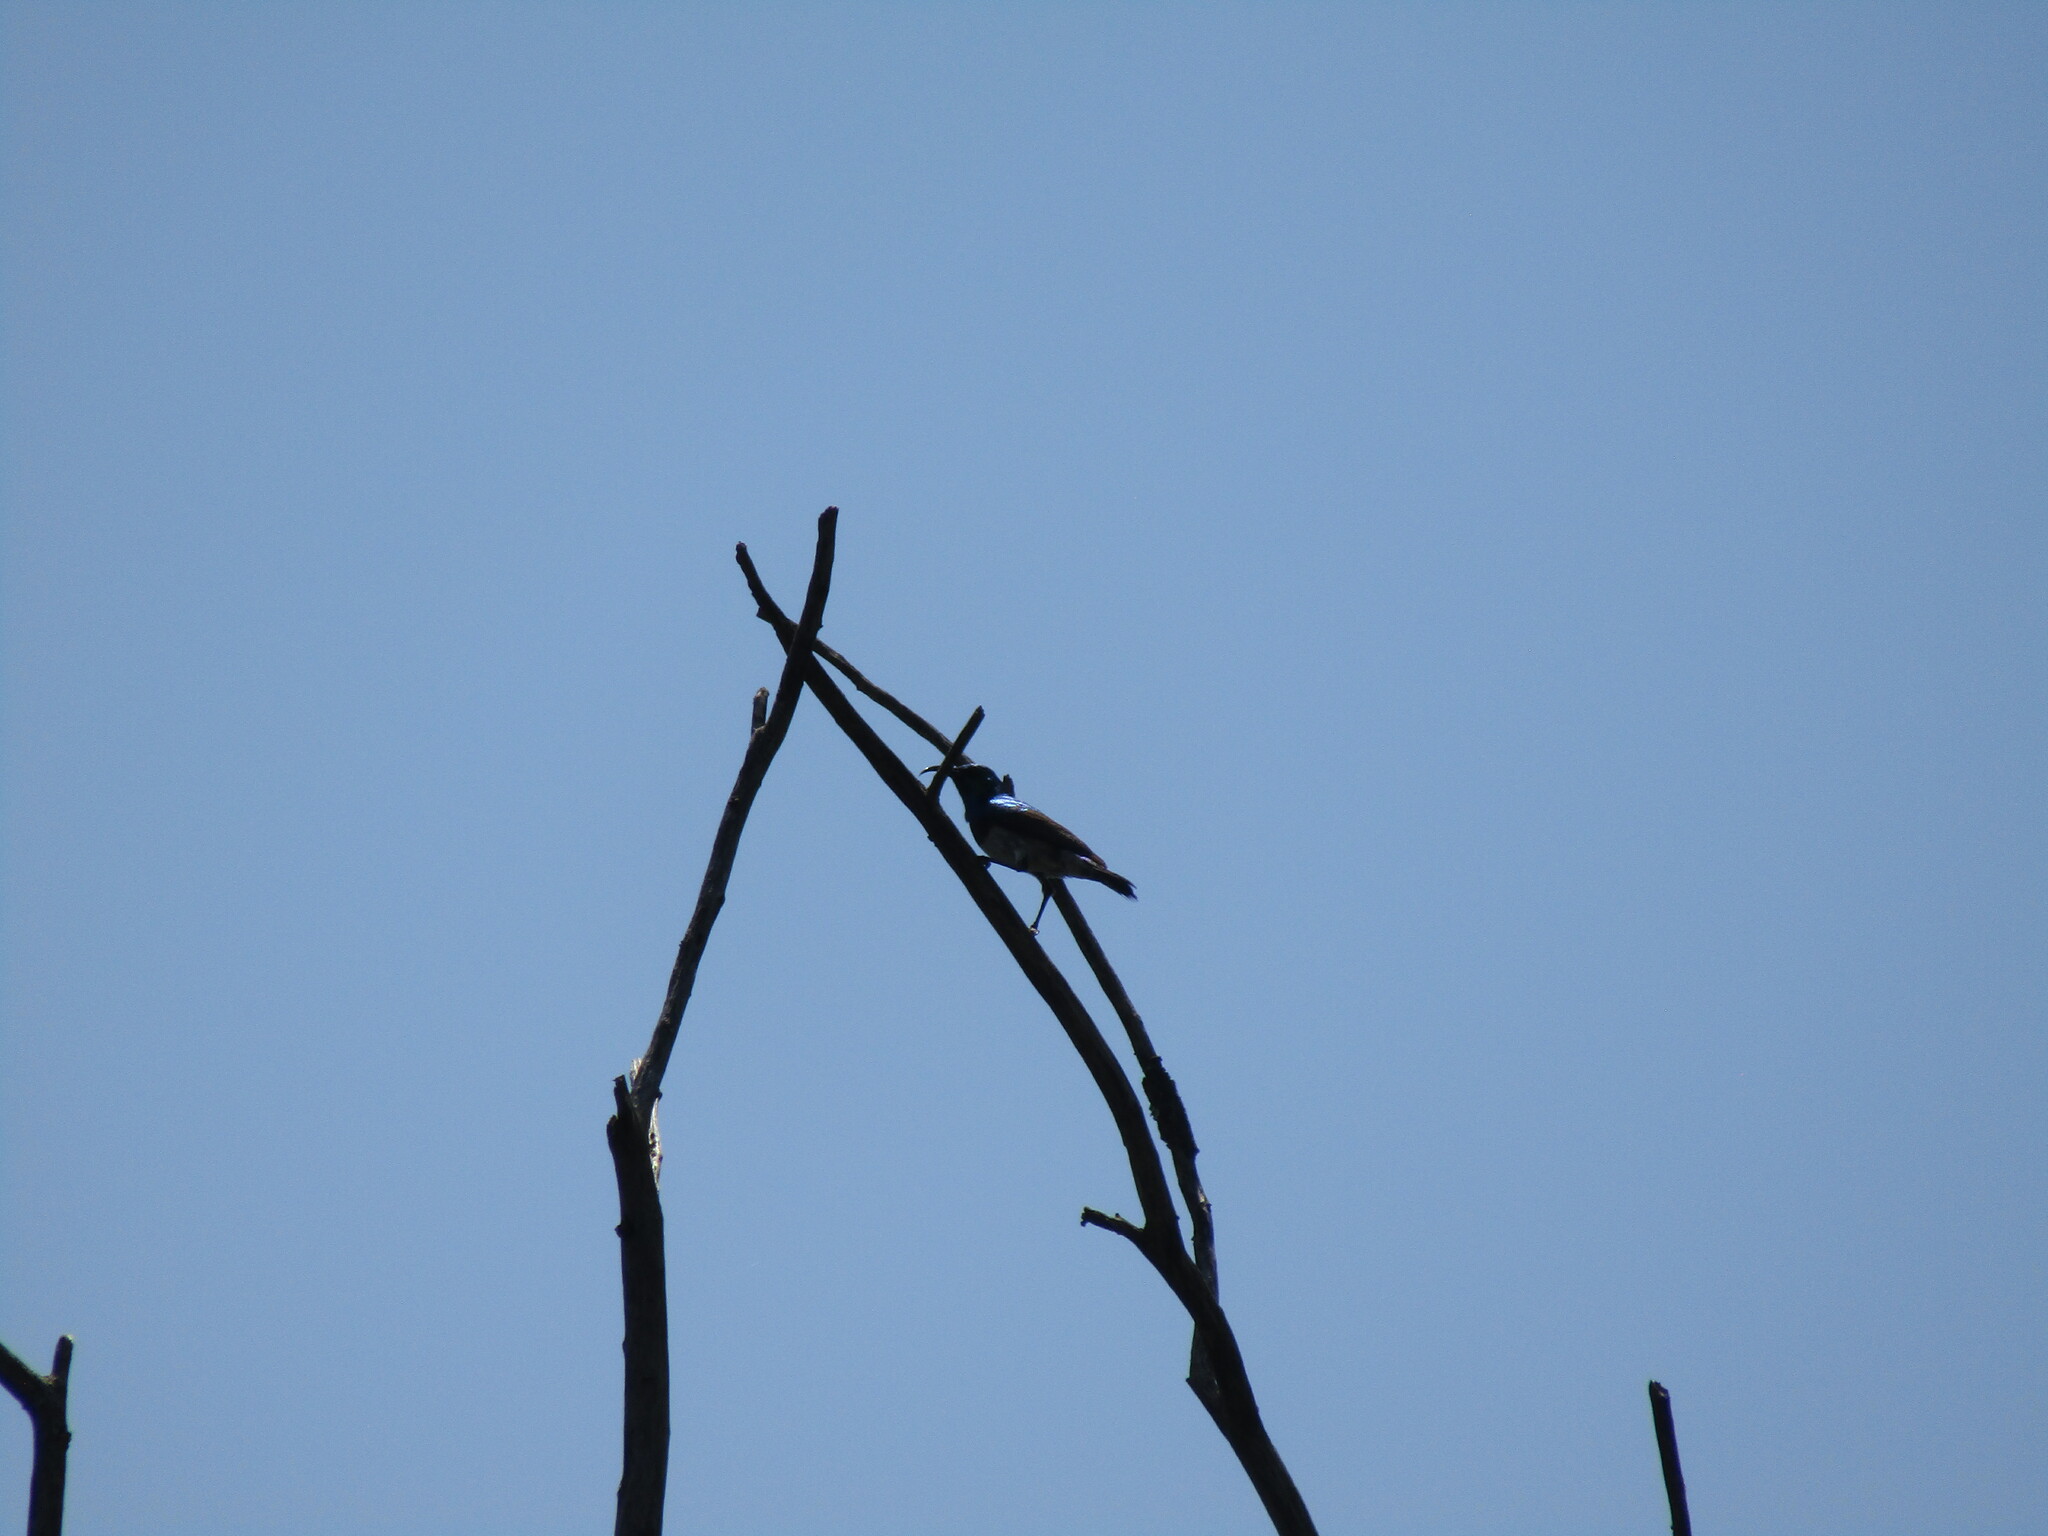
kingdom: Animalia
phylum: Chordata
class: Aves
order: Passeriformes
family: Nectariniidae
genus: Cinnyris
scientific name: Cinnyris talatala
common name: White-bellied sunbird
